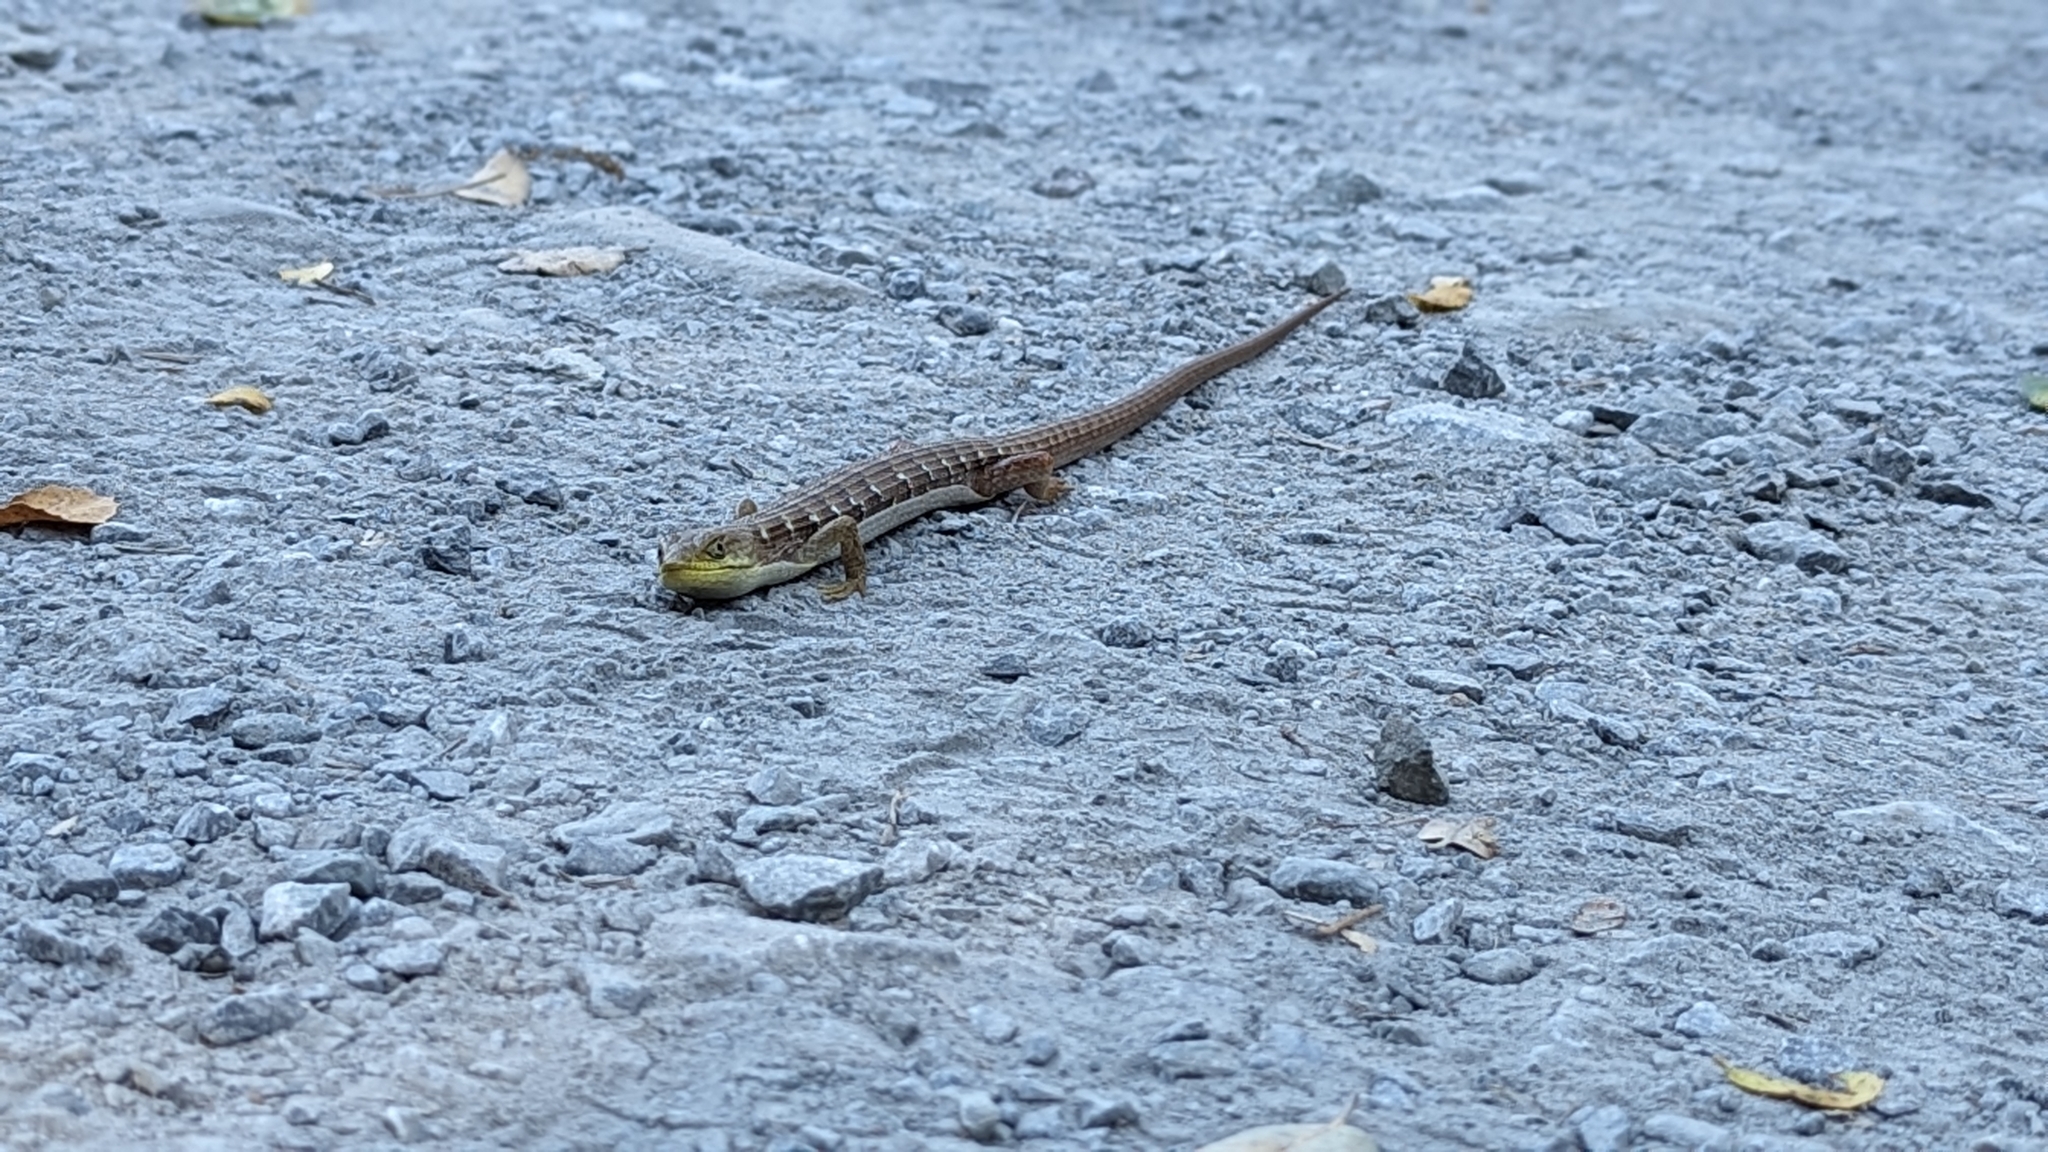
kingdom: Animalia
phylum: Chordata
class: Squamata
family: Anguidae
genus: Elgaria
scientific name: Elgaria multicarinata
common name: Southern alligator lizard
